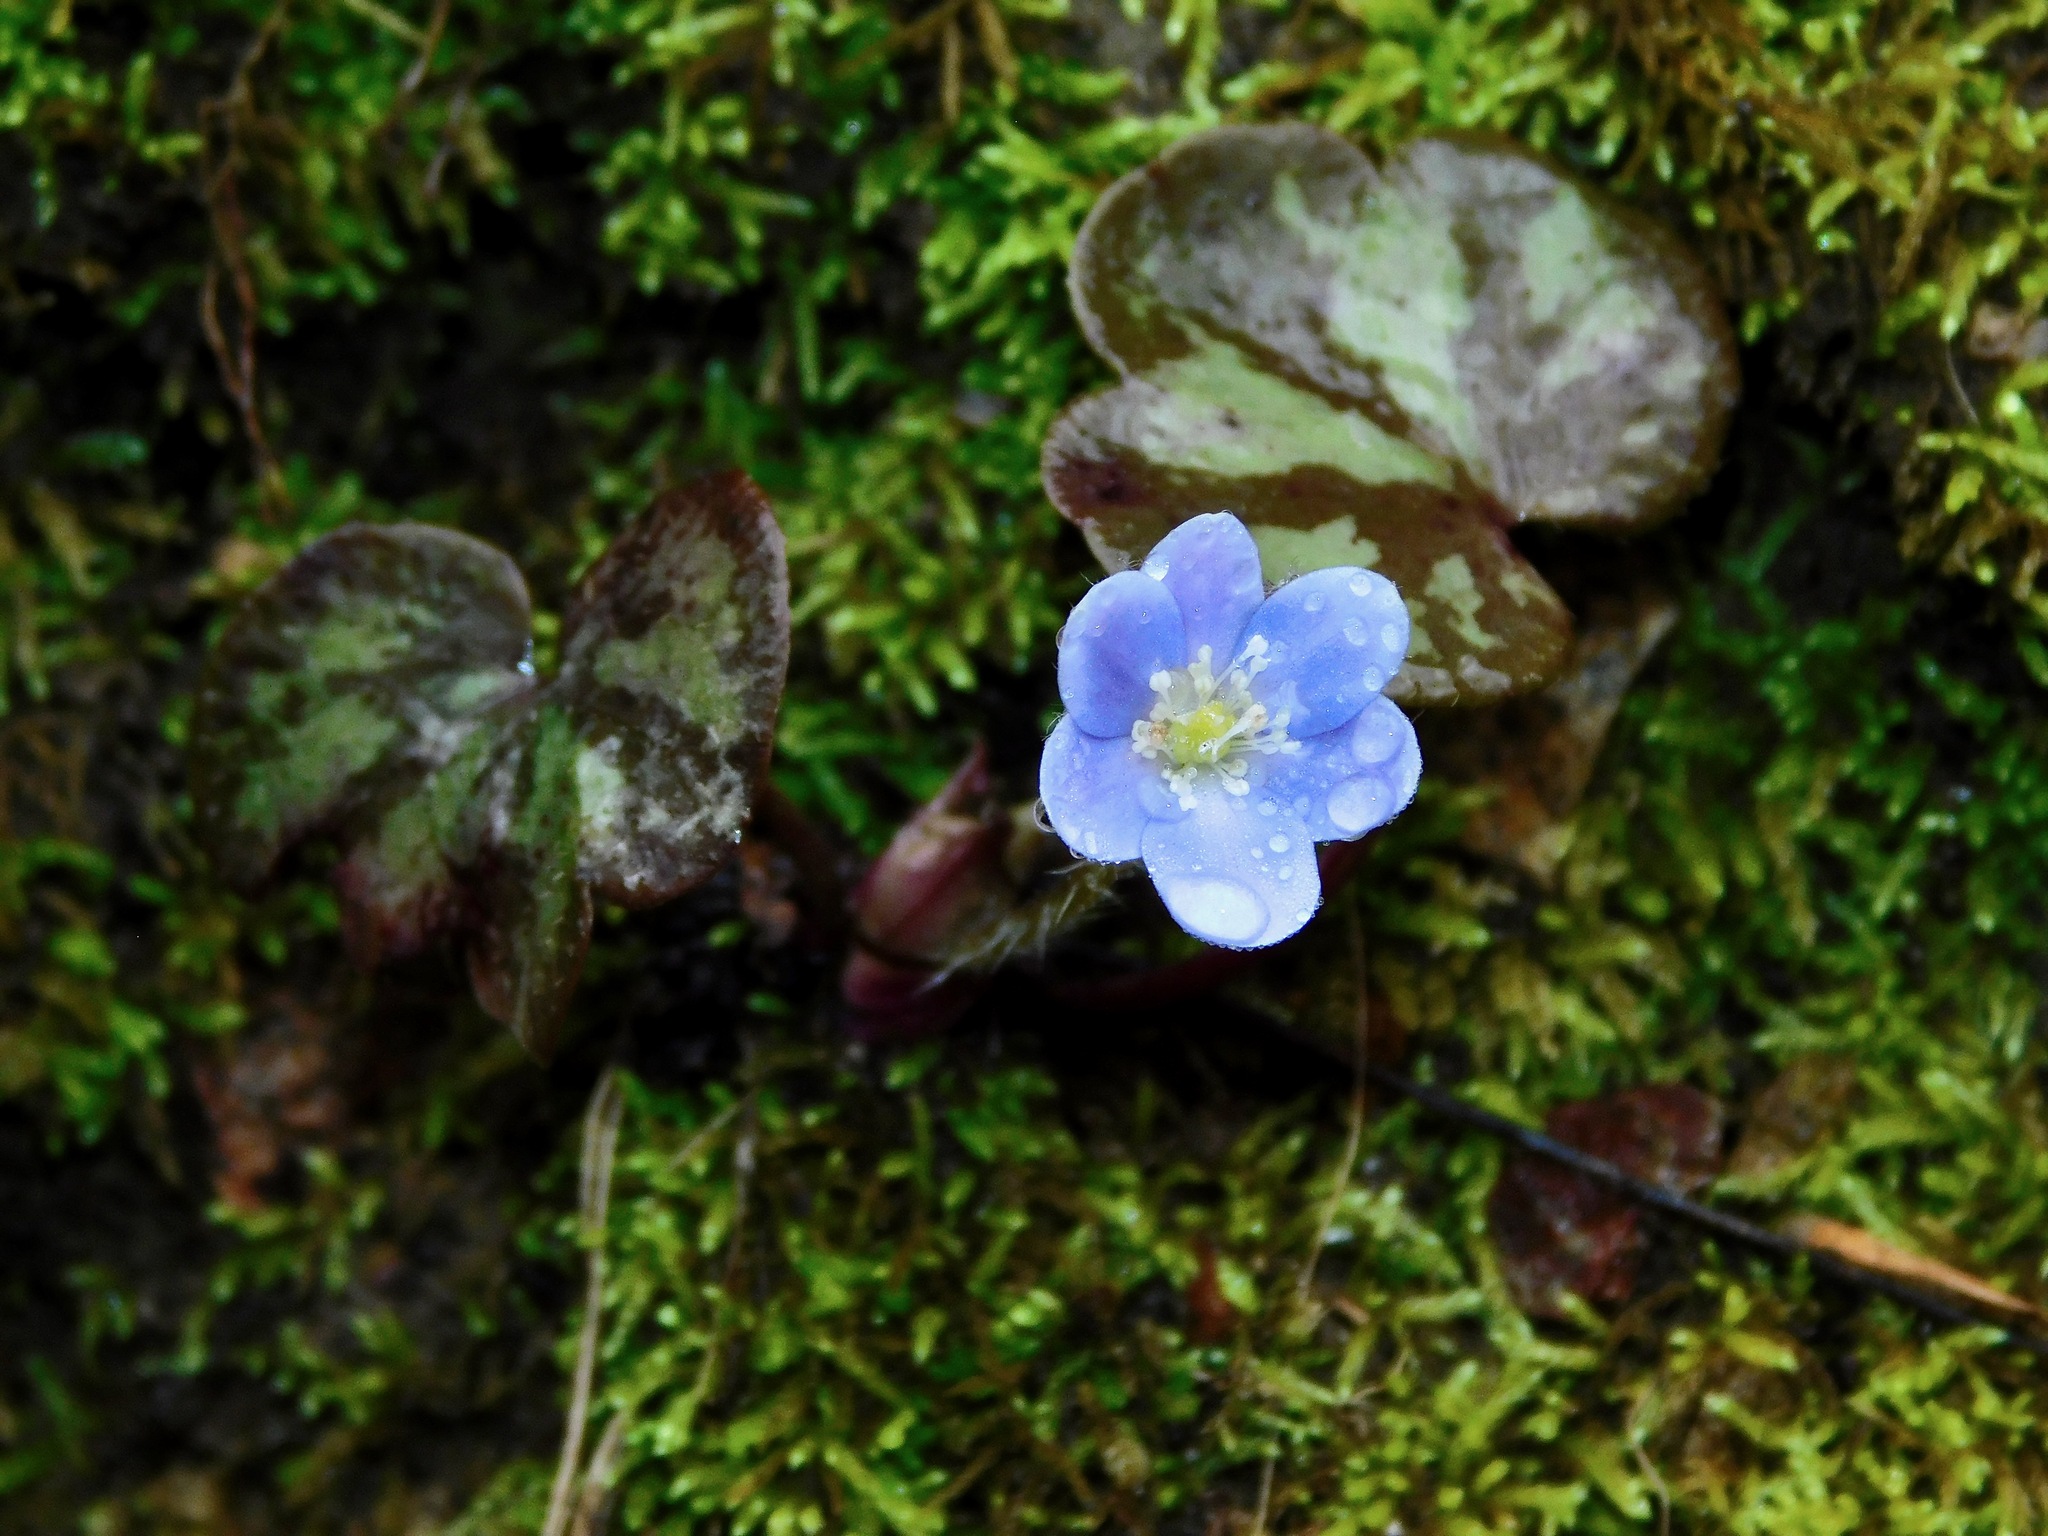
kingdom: Plantae
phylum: Tracheophyta
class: Magnoliopsida
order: Ranunculales
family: Ranunculaceae
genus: Hepatica
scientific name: Hepatica americana
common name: American hepatica
